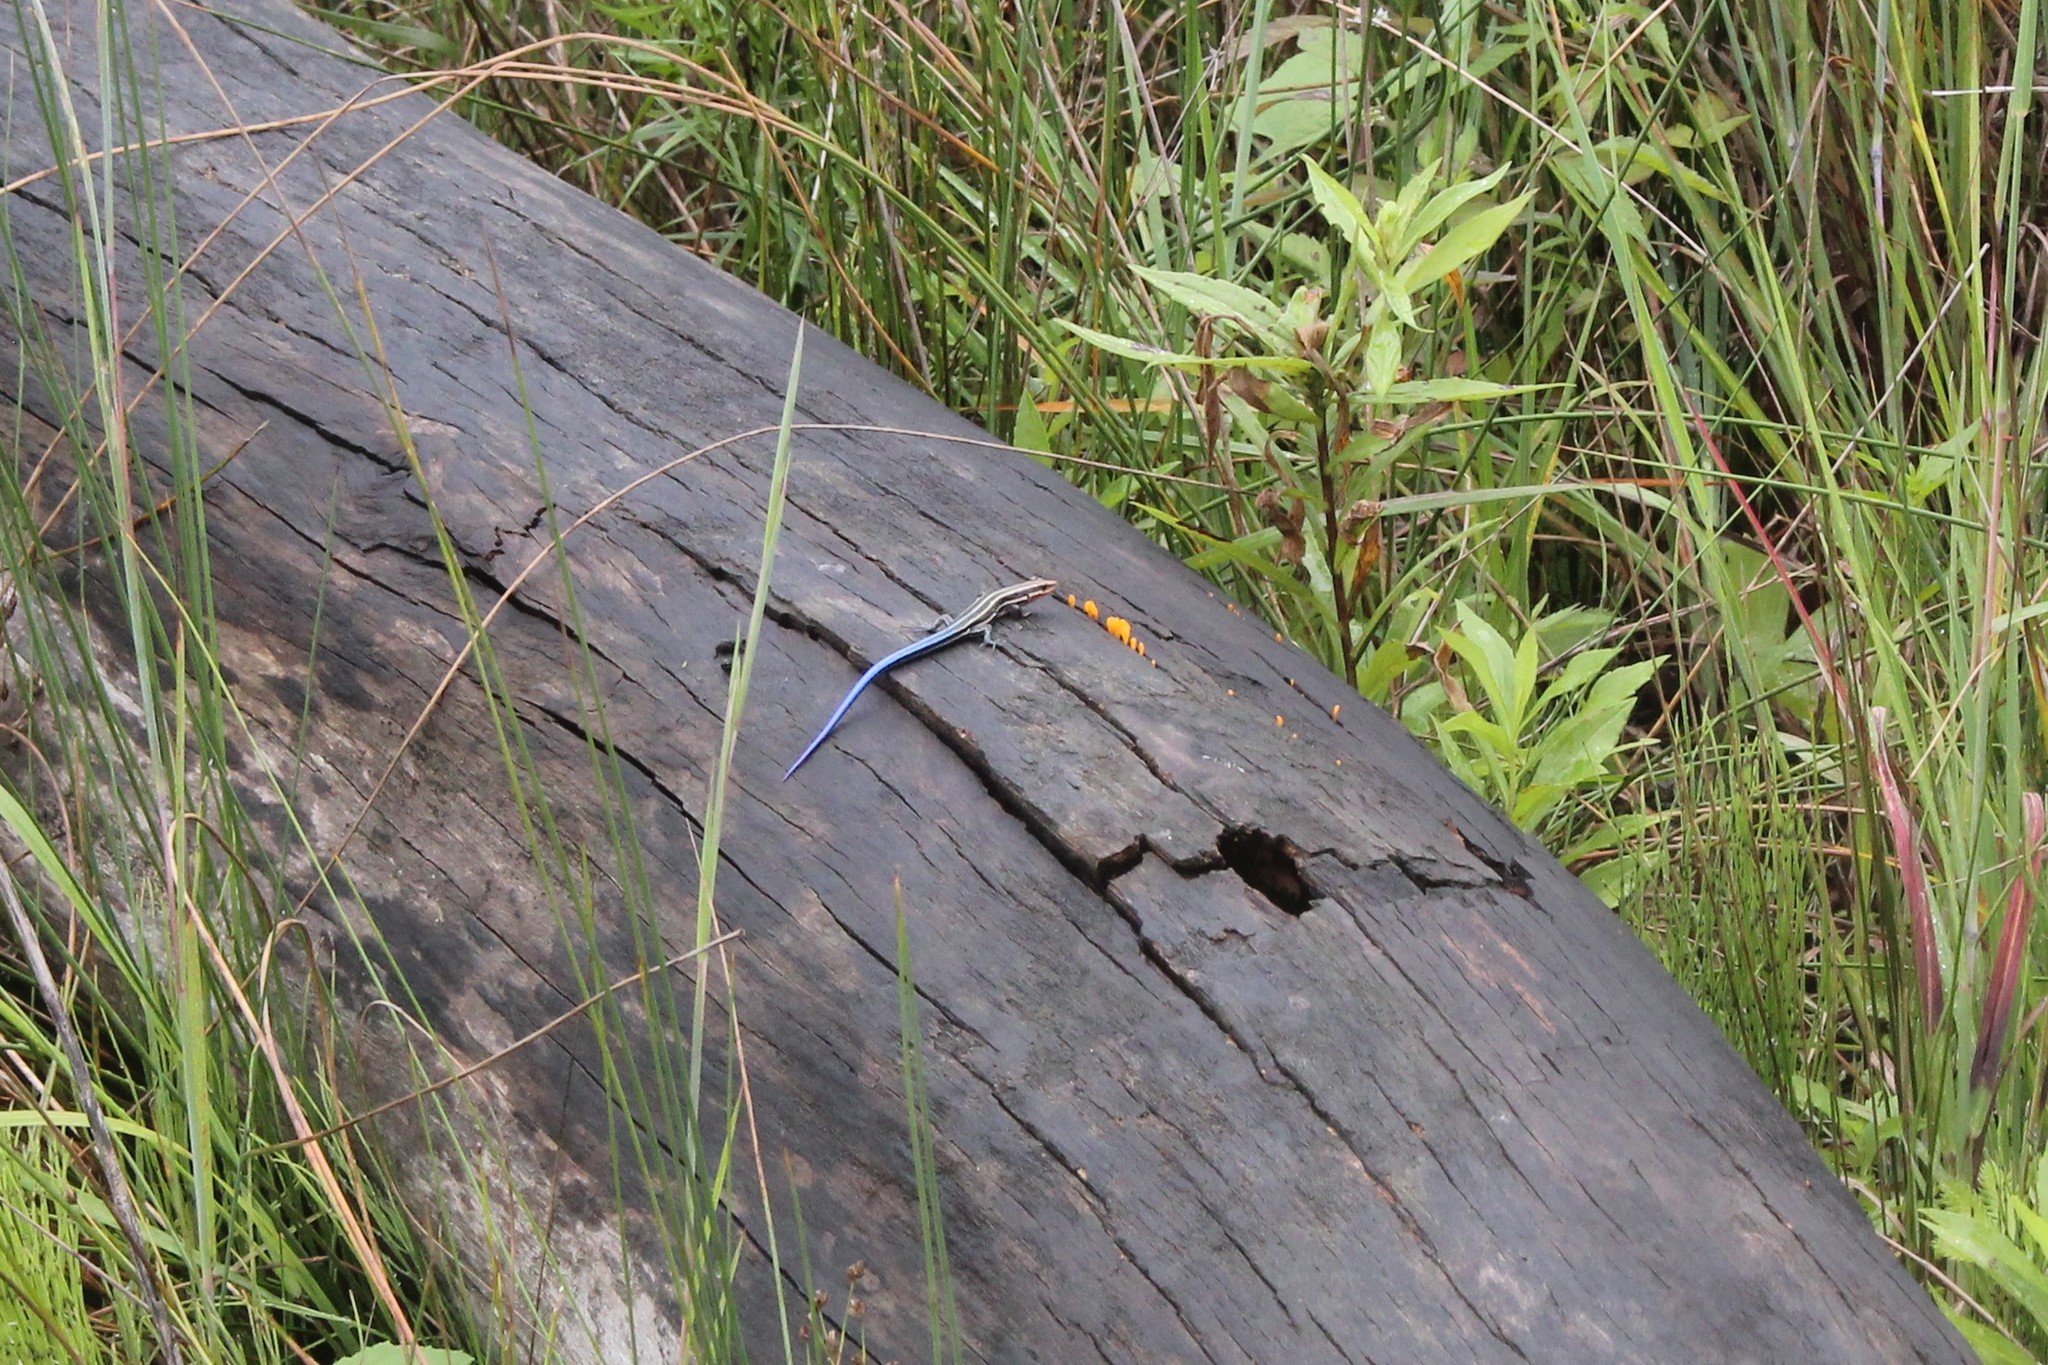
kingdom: Animalia
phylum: Chordata
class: Squamata
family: Scincidae
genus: Plestiodon
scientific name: Plestiodon fasciatus
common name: Five-lined skink
